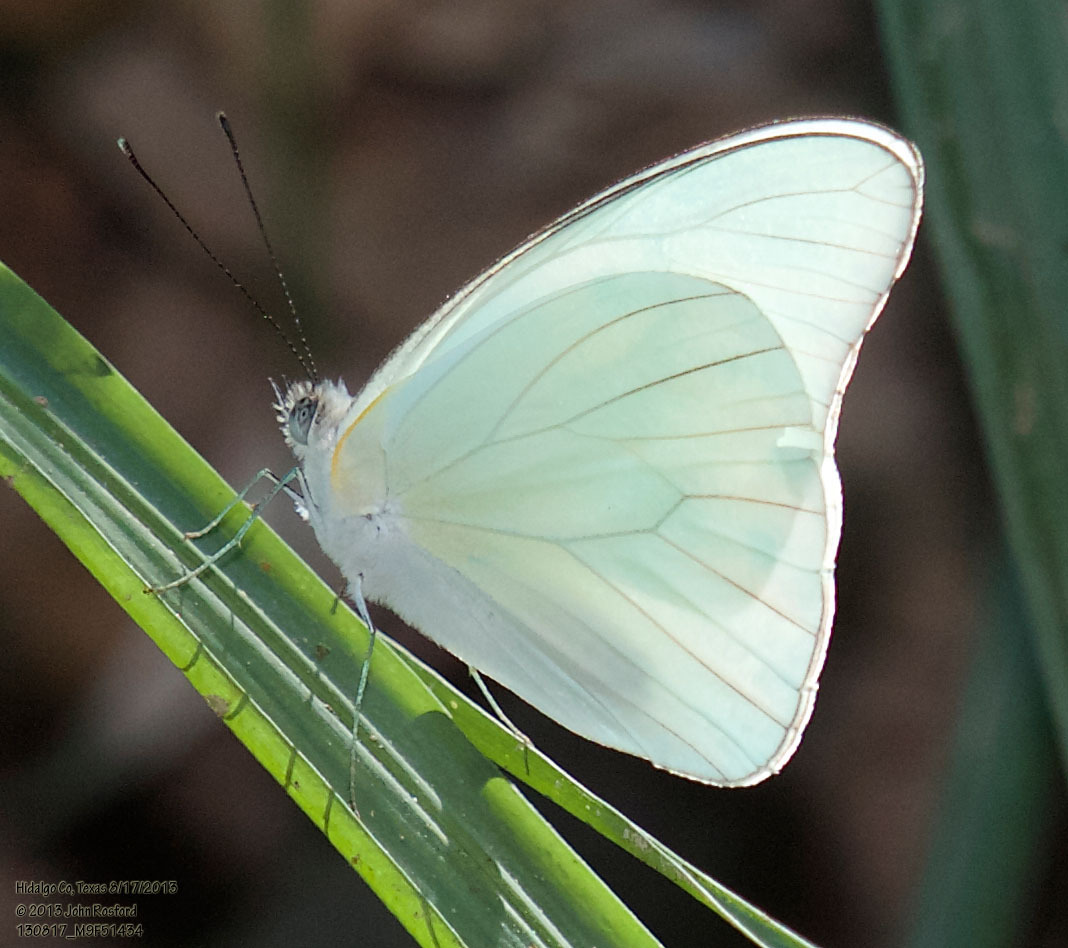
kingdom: Animalia
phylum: Arthropoda
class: Insecta
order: Lepidoptera
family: Pieridae
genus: Glutophrissa
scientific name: Glutophrissa drusilla
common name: Florida white
